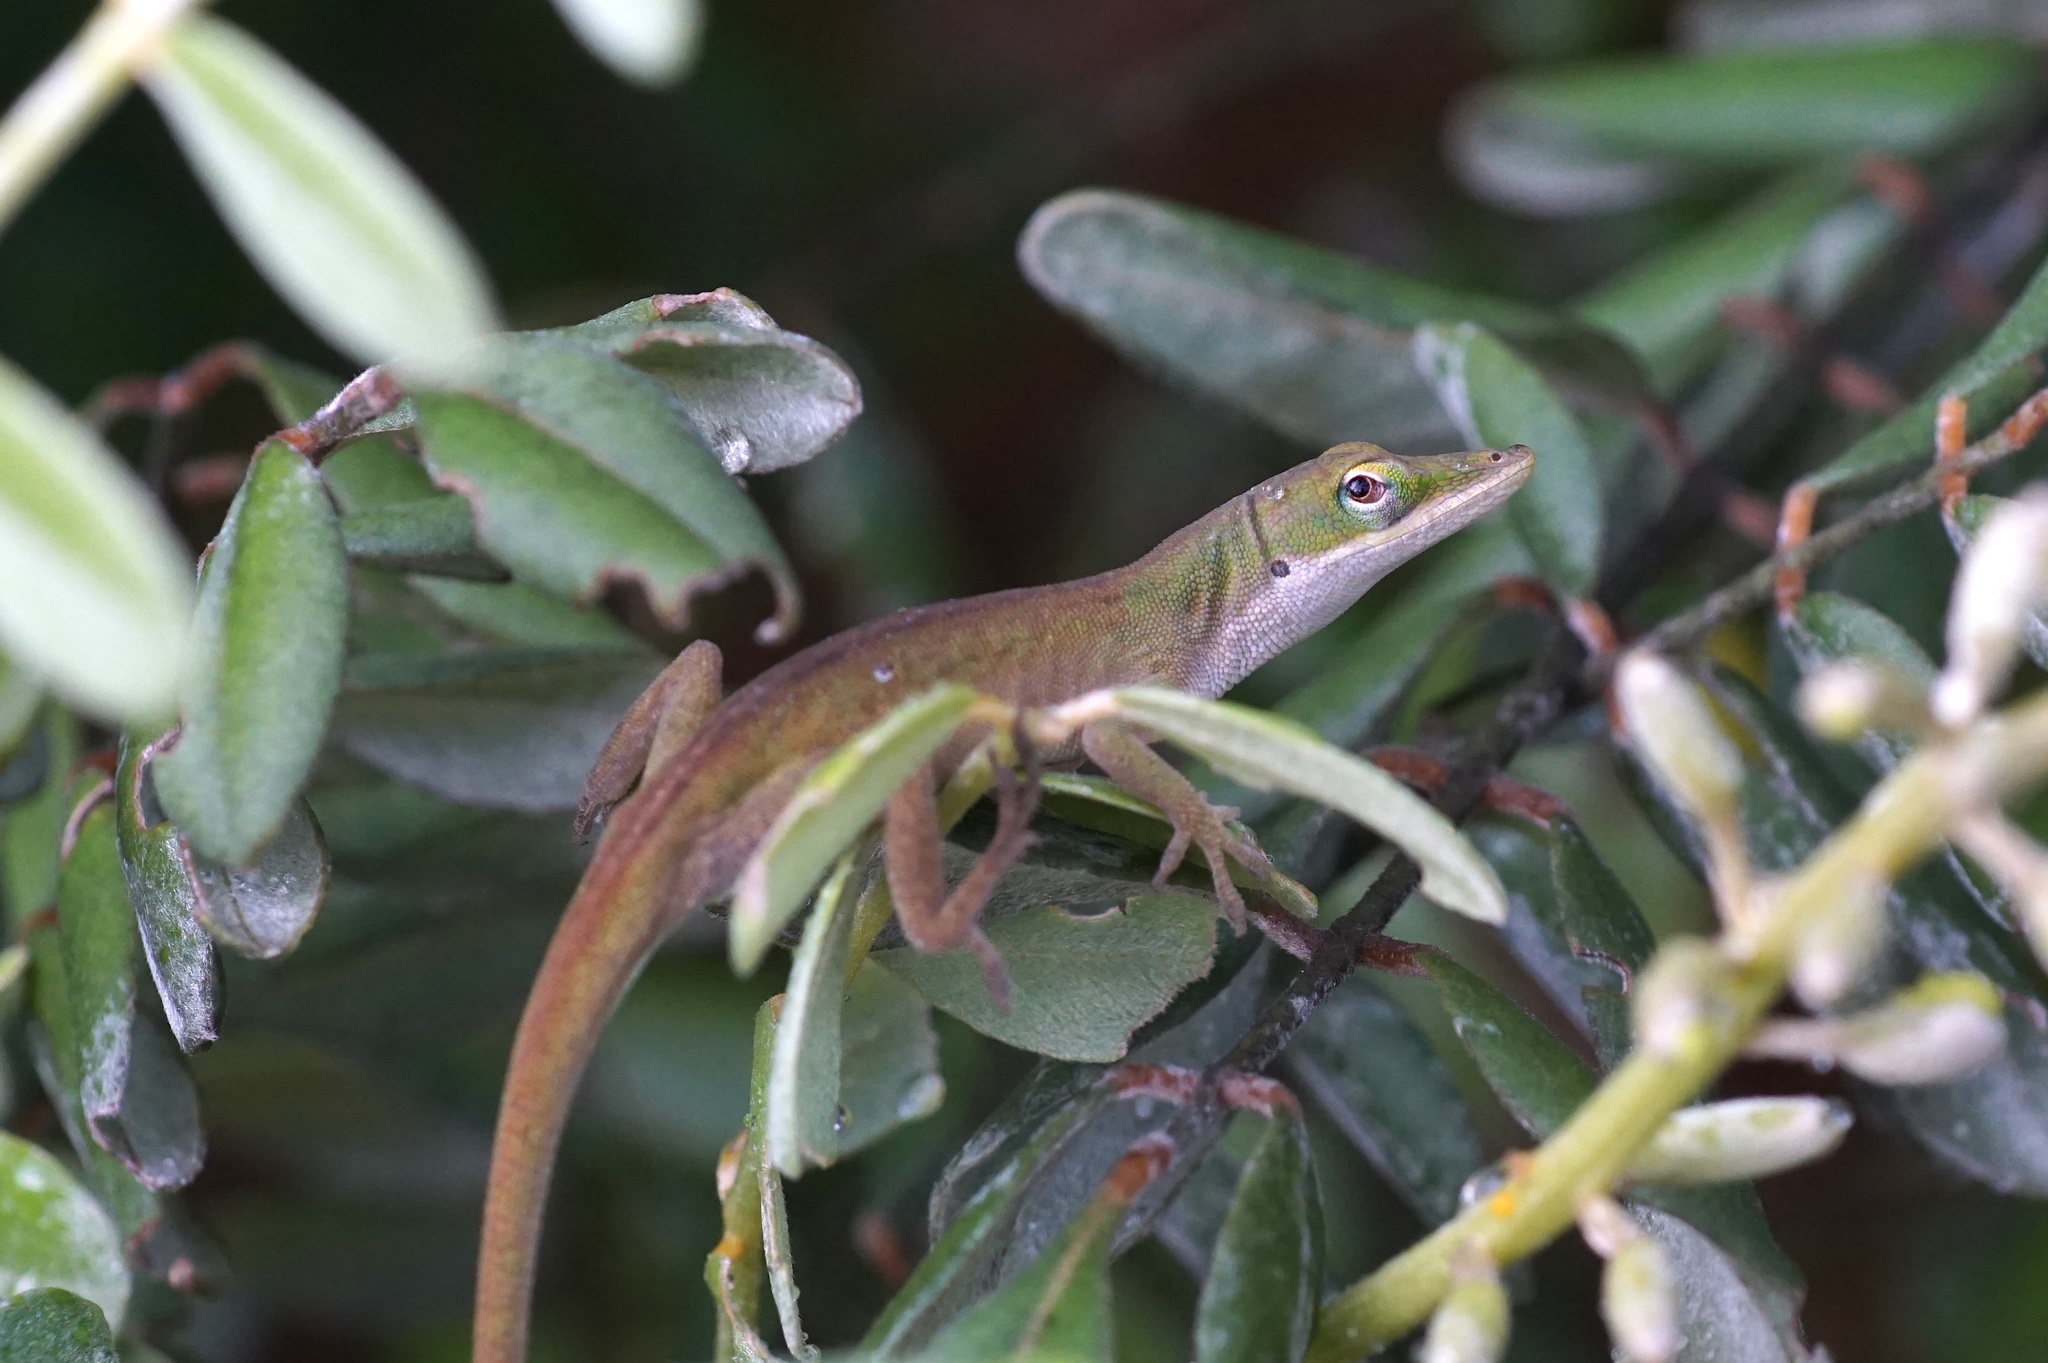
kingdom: Animalia
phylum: Chordata
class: Squamata
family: Dactyloidae
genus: Anolis
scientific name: Anolis carolinensis
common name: Green anole
